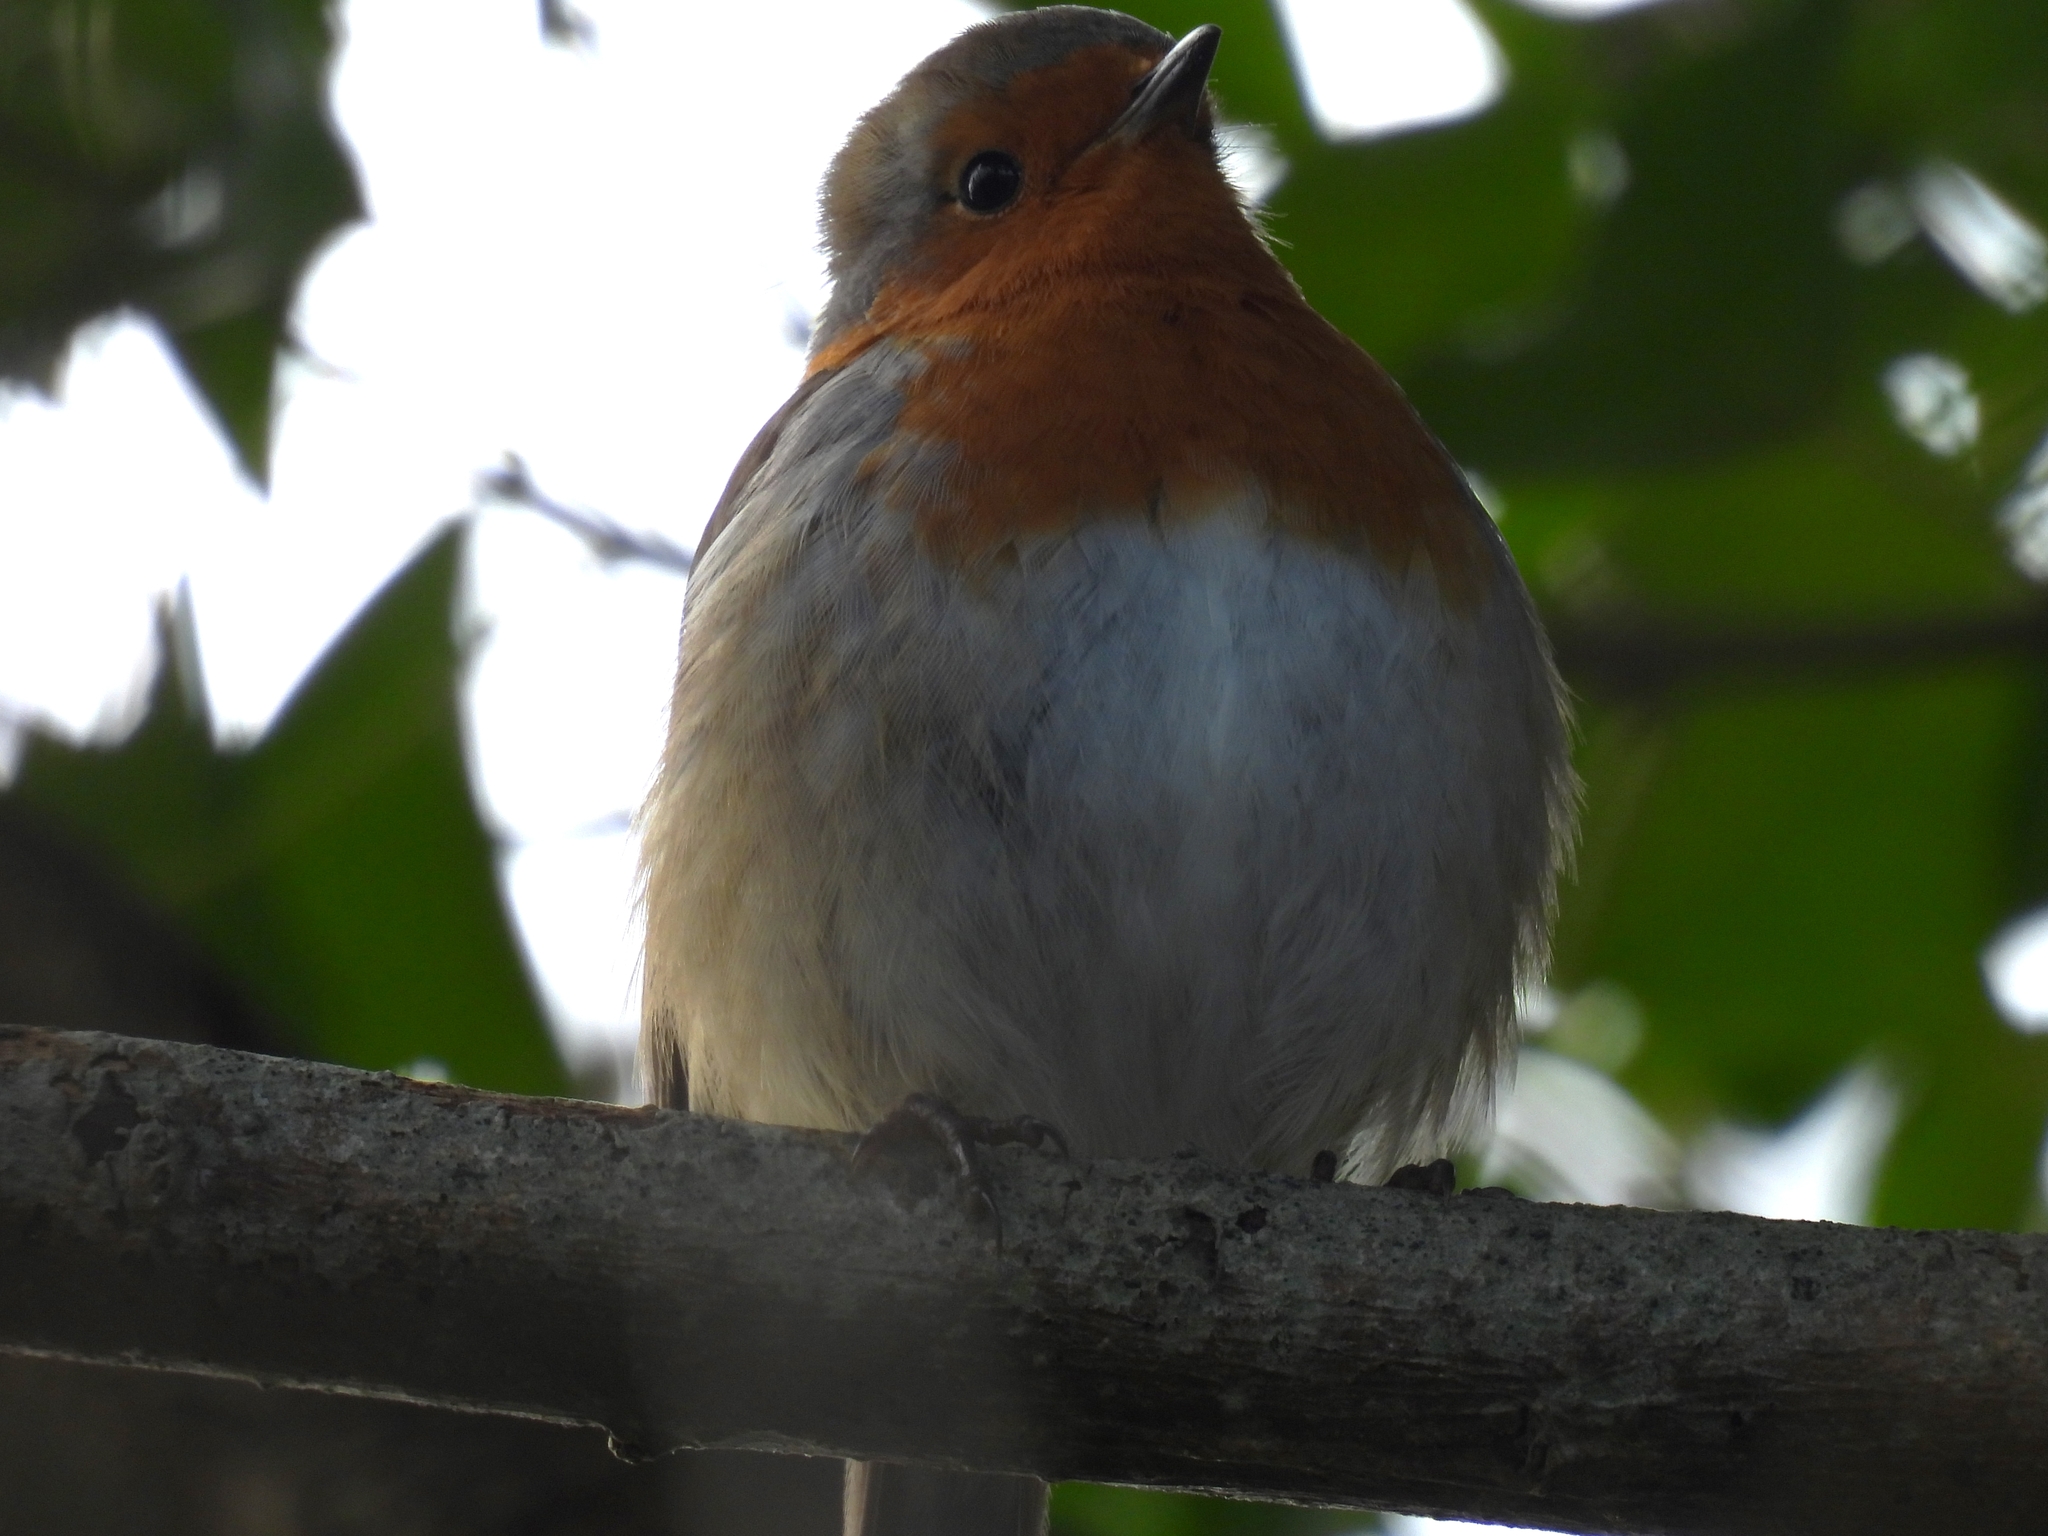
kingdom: Animalia
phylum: Chordata
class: Aves
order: Passeriformes
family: Muscicapidae
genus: Erithacus
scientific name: Erithacus rubecula
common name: European robin
